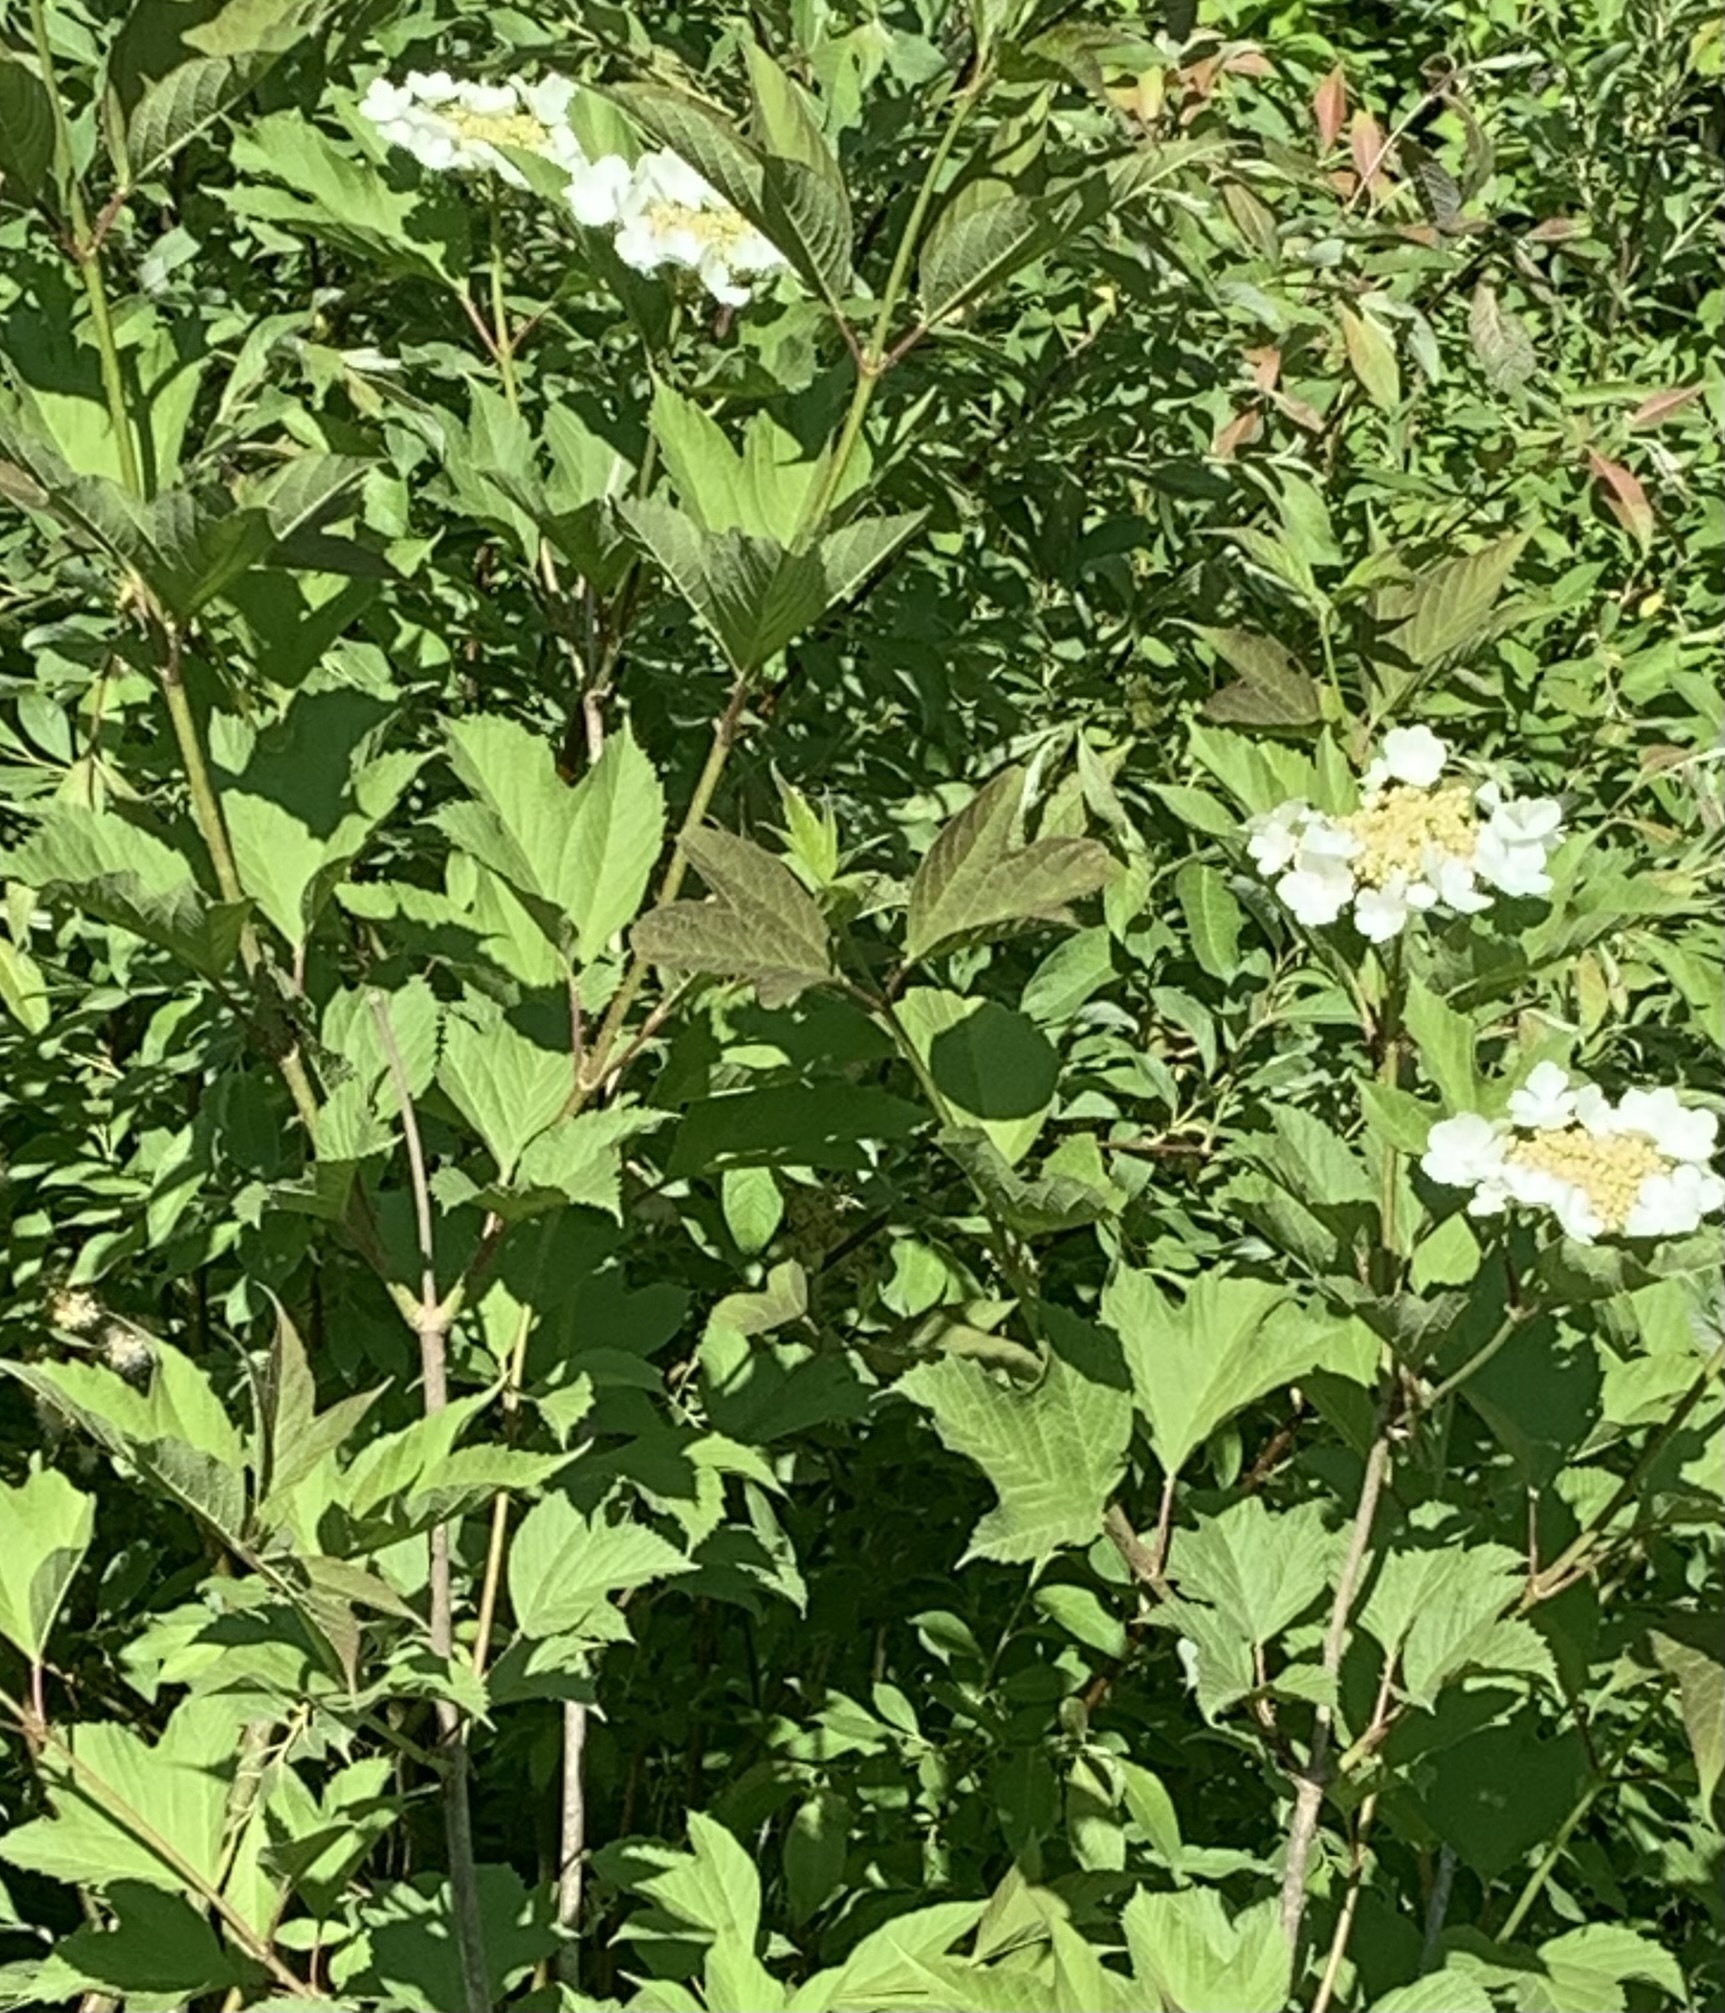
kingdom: Plantae
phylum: Tracheophyta
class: Magnoliopsida
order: Dipsacales
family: Viburnaceae
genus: Viburnum
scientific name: Viburnum opulus
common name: Guelder-rose
